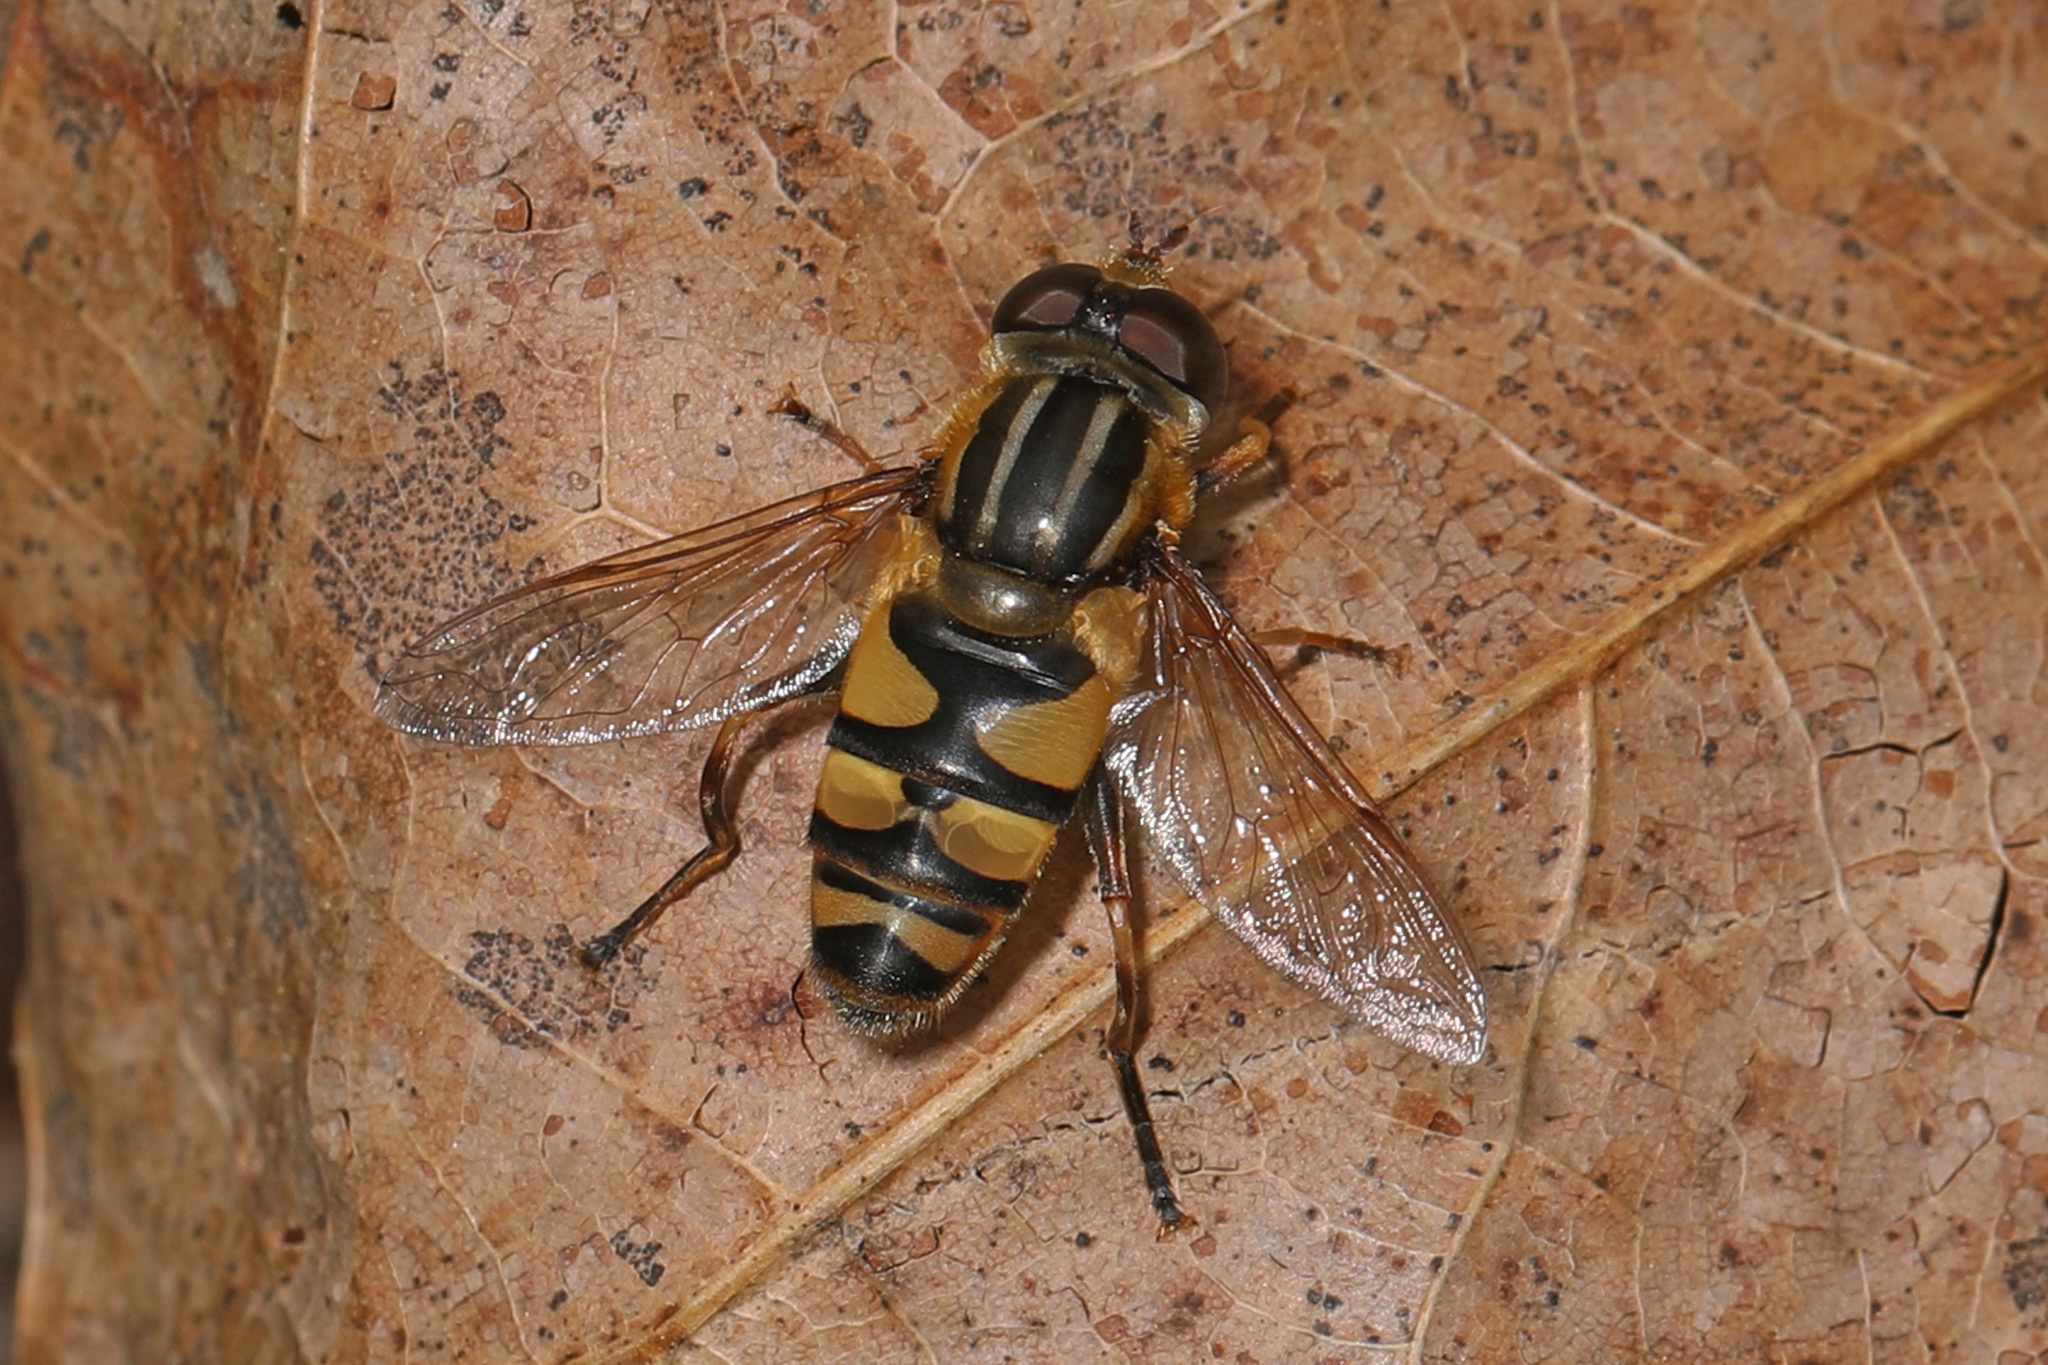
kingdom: Animalia
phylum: Arthropoda
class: Insecta
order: Diptera
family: Syrphidae
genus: Helophilus
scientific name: Helophilus fasciatus
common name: Narrow-headed marsh fly
